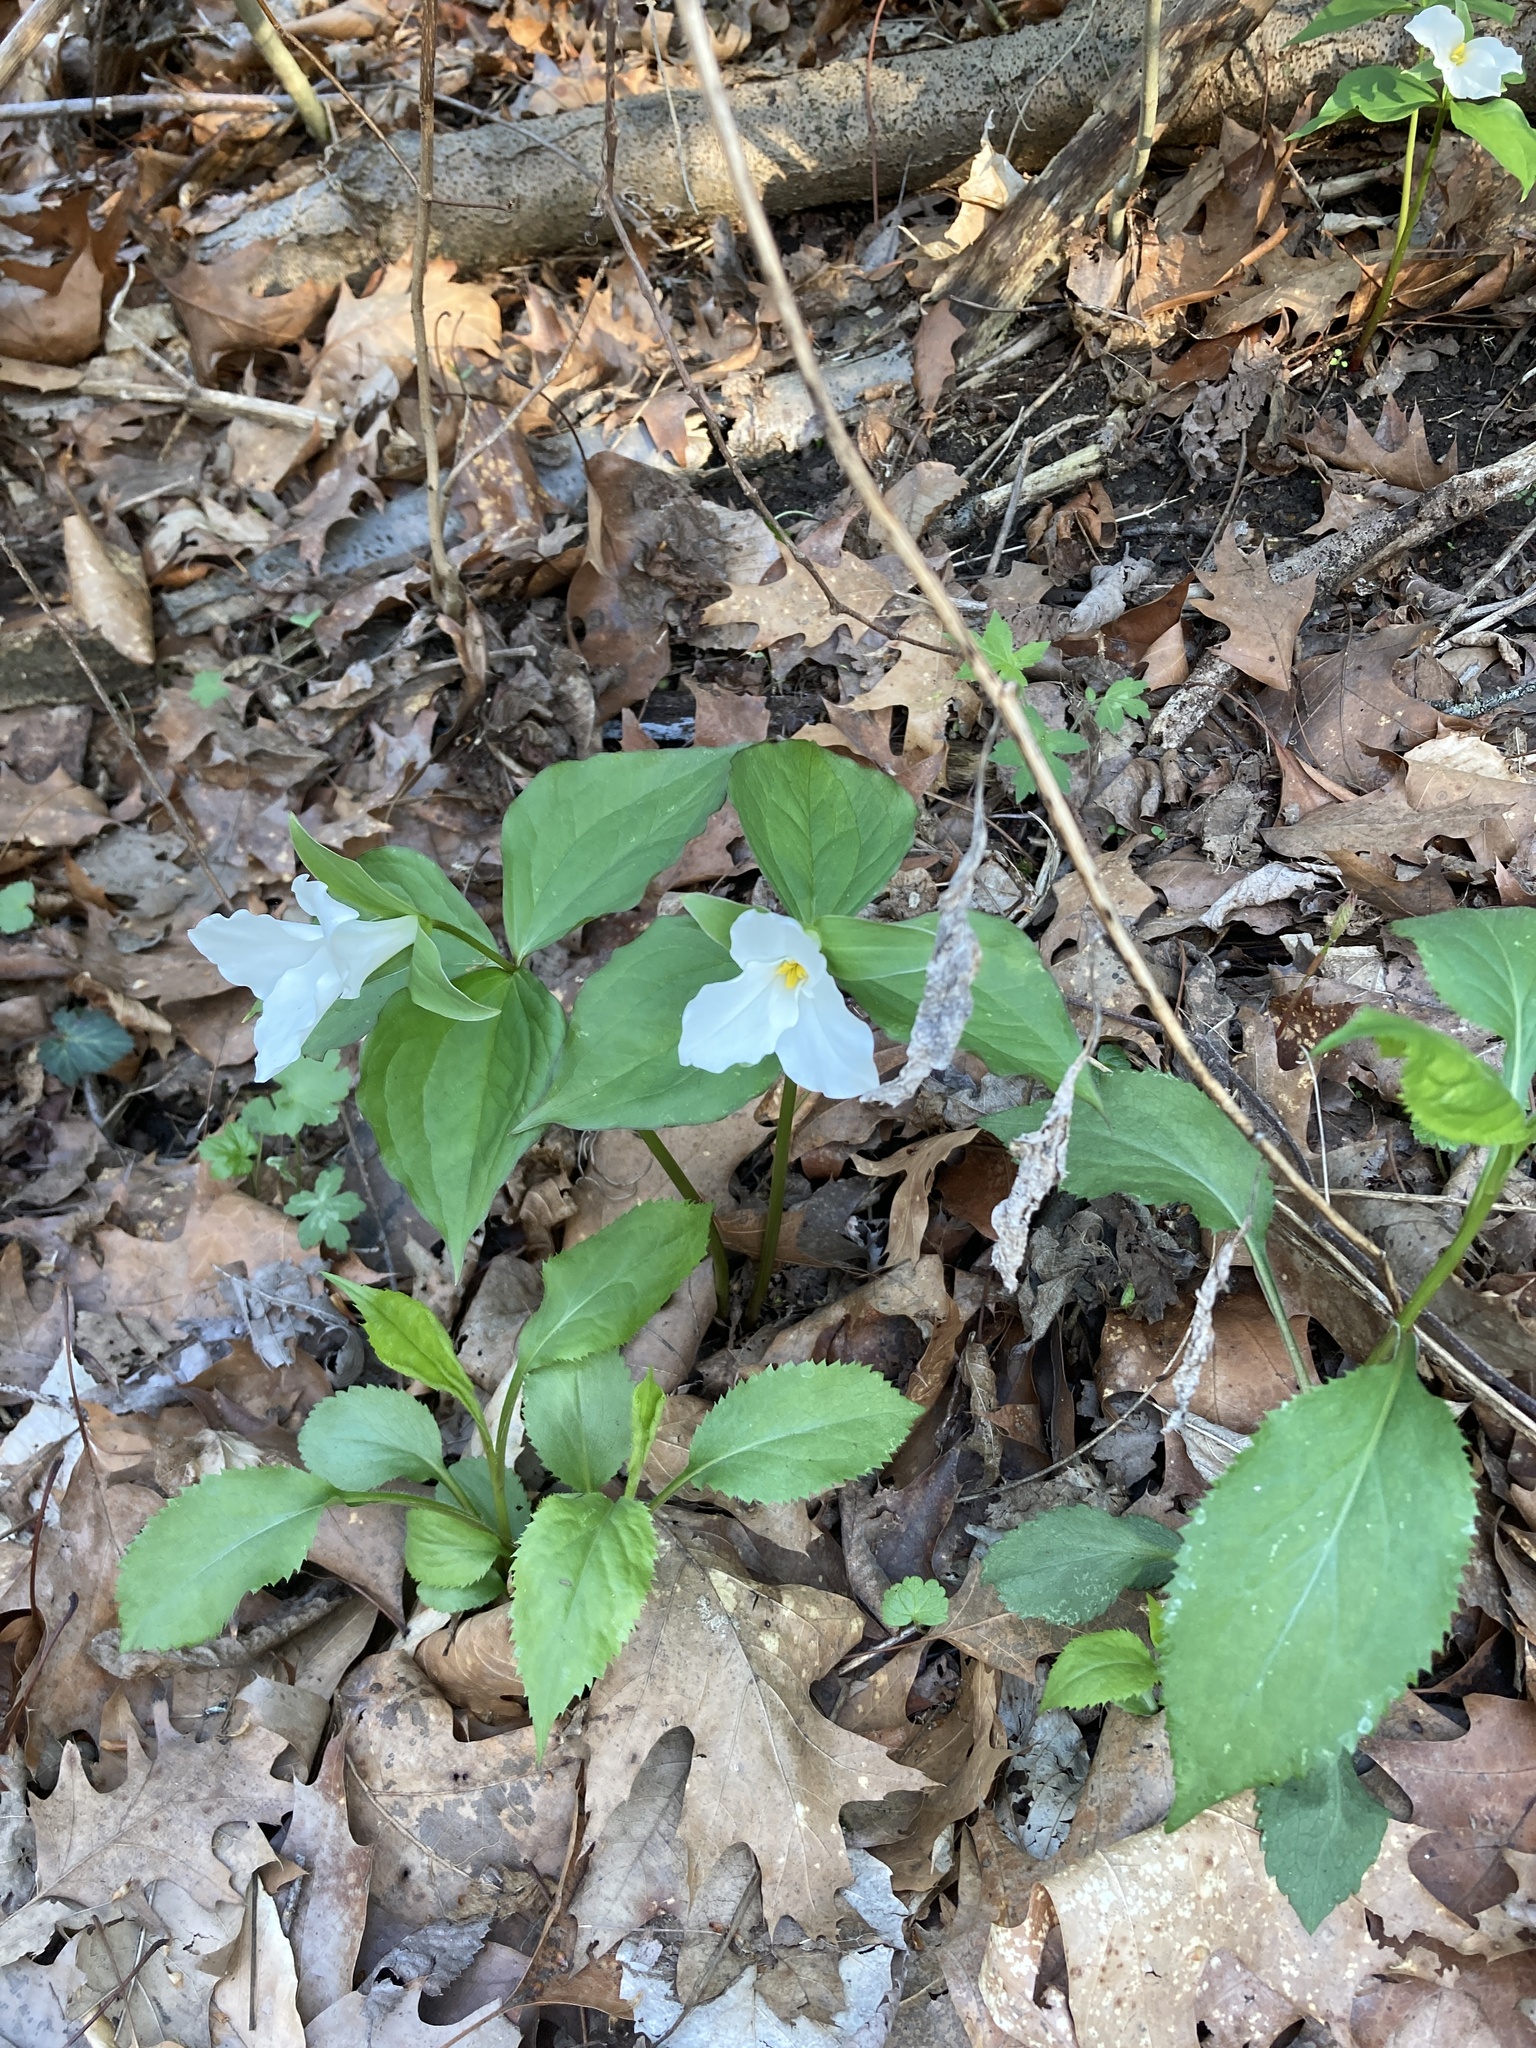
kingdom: Plantae
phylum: Tracheophyta
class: Liliopsida
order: Liliales
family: Melanthiaceae
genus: Trillium
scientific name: Trillium grandiflorum
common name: Great white trillium
